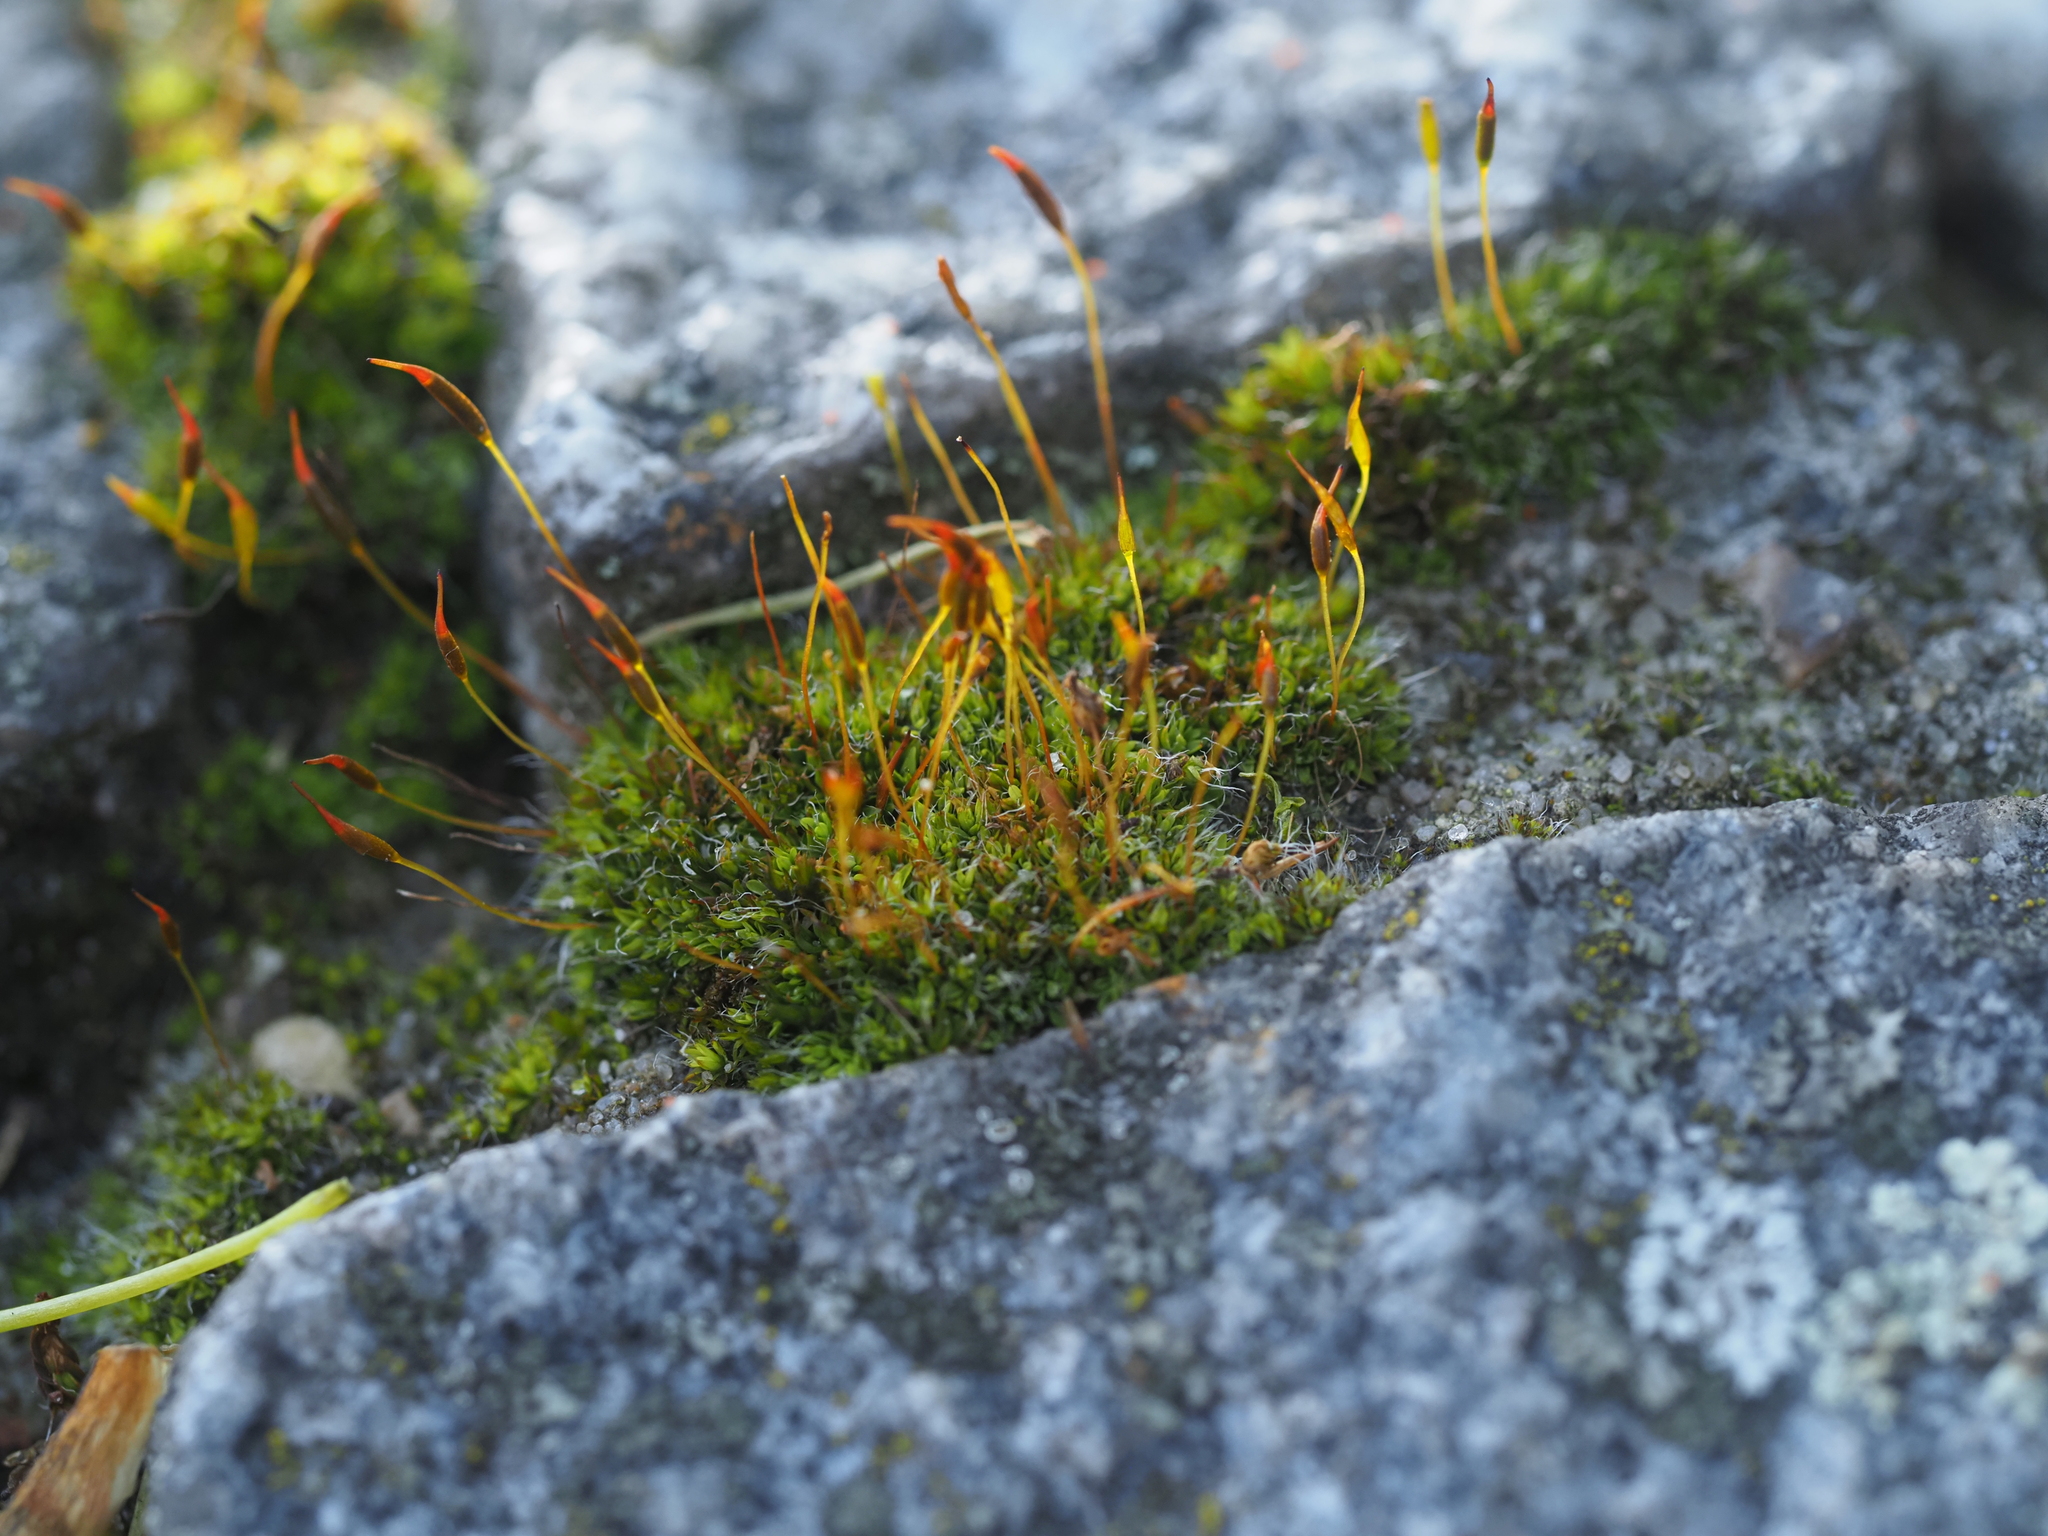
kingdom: Plantae
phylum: Bryophyta
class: Bryopsida
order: Pottiales
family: Pottiaceae
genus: Tortula
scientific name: Tortula muralis
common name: Wall screw-moss
